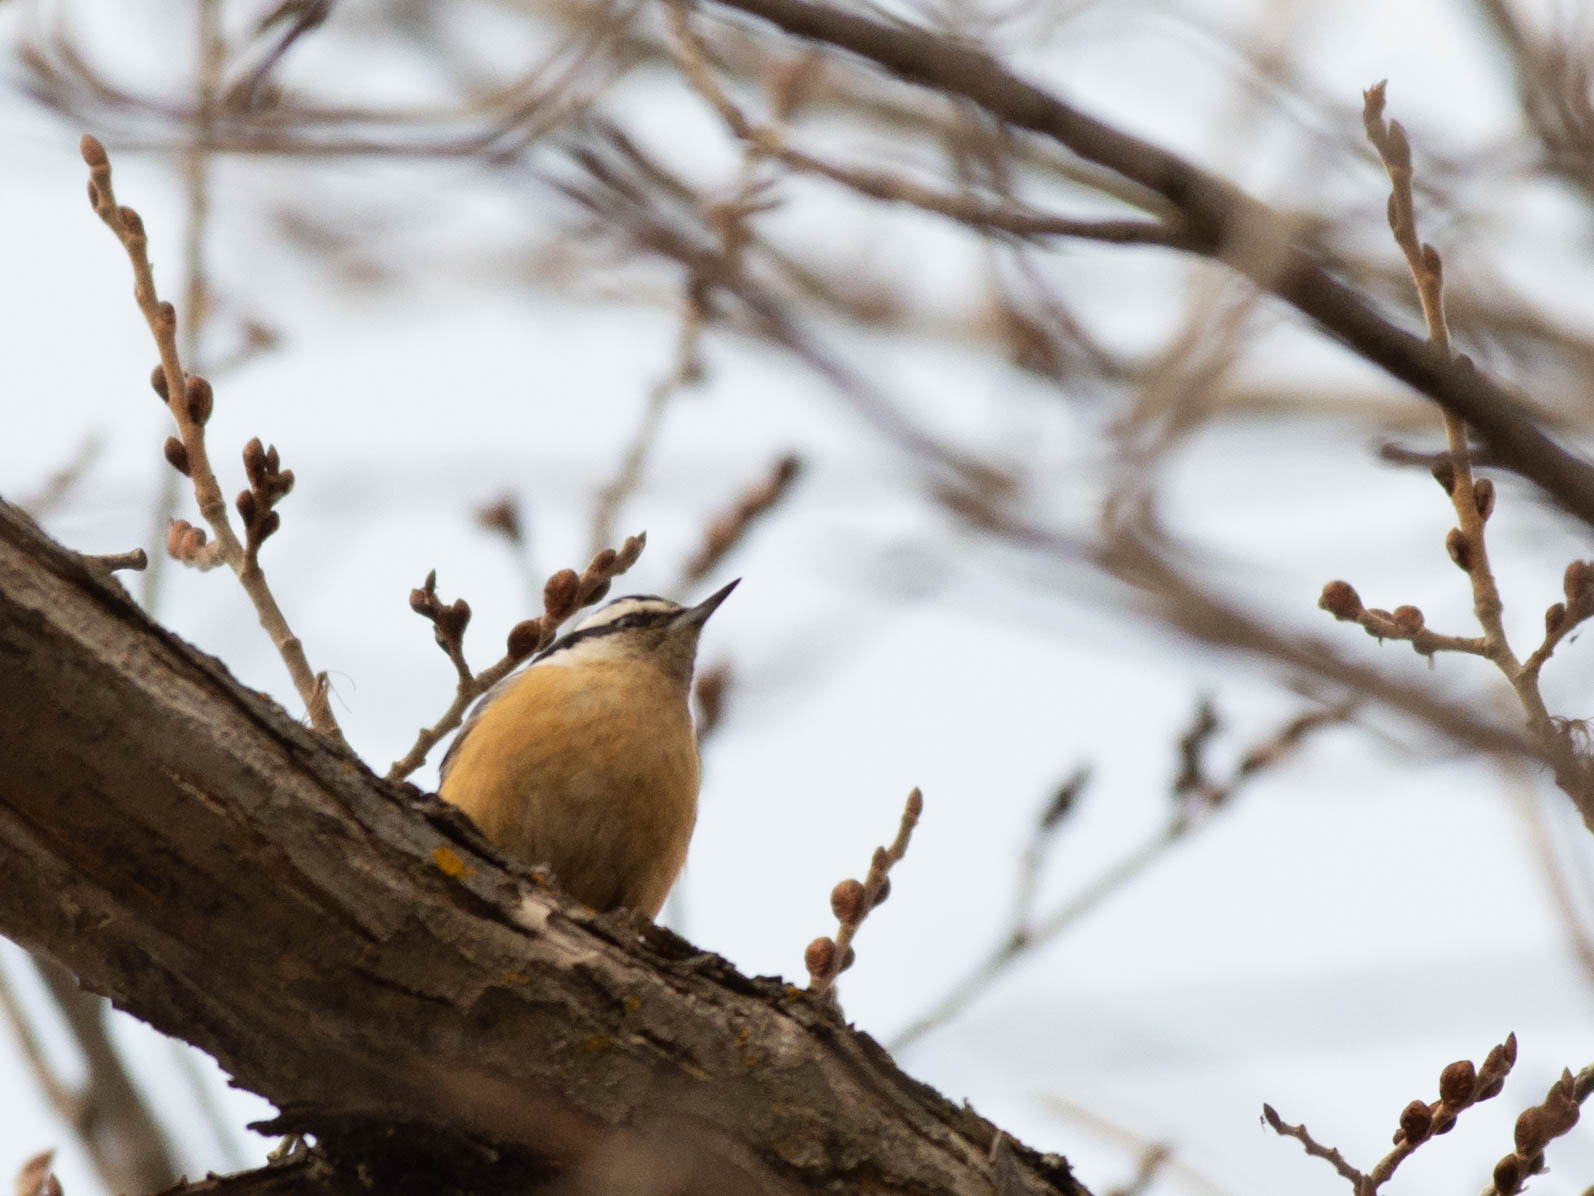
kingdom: Animalia
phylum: Chordata
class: Aves
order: Passeriformes
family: Sittidae
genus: Sitta
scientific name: Sitta canadensis
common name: Red-breasted nuthatch
